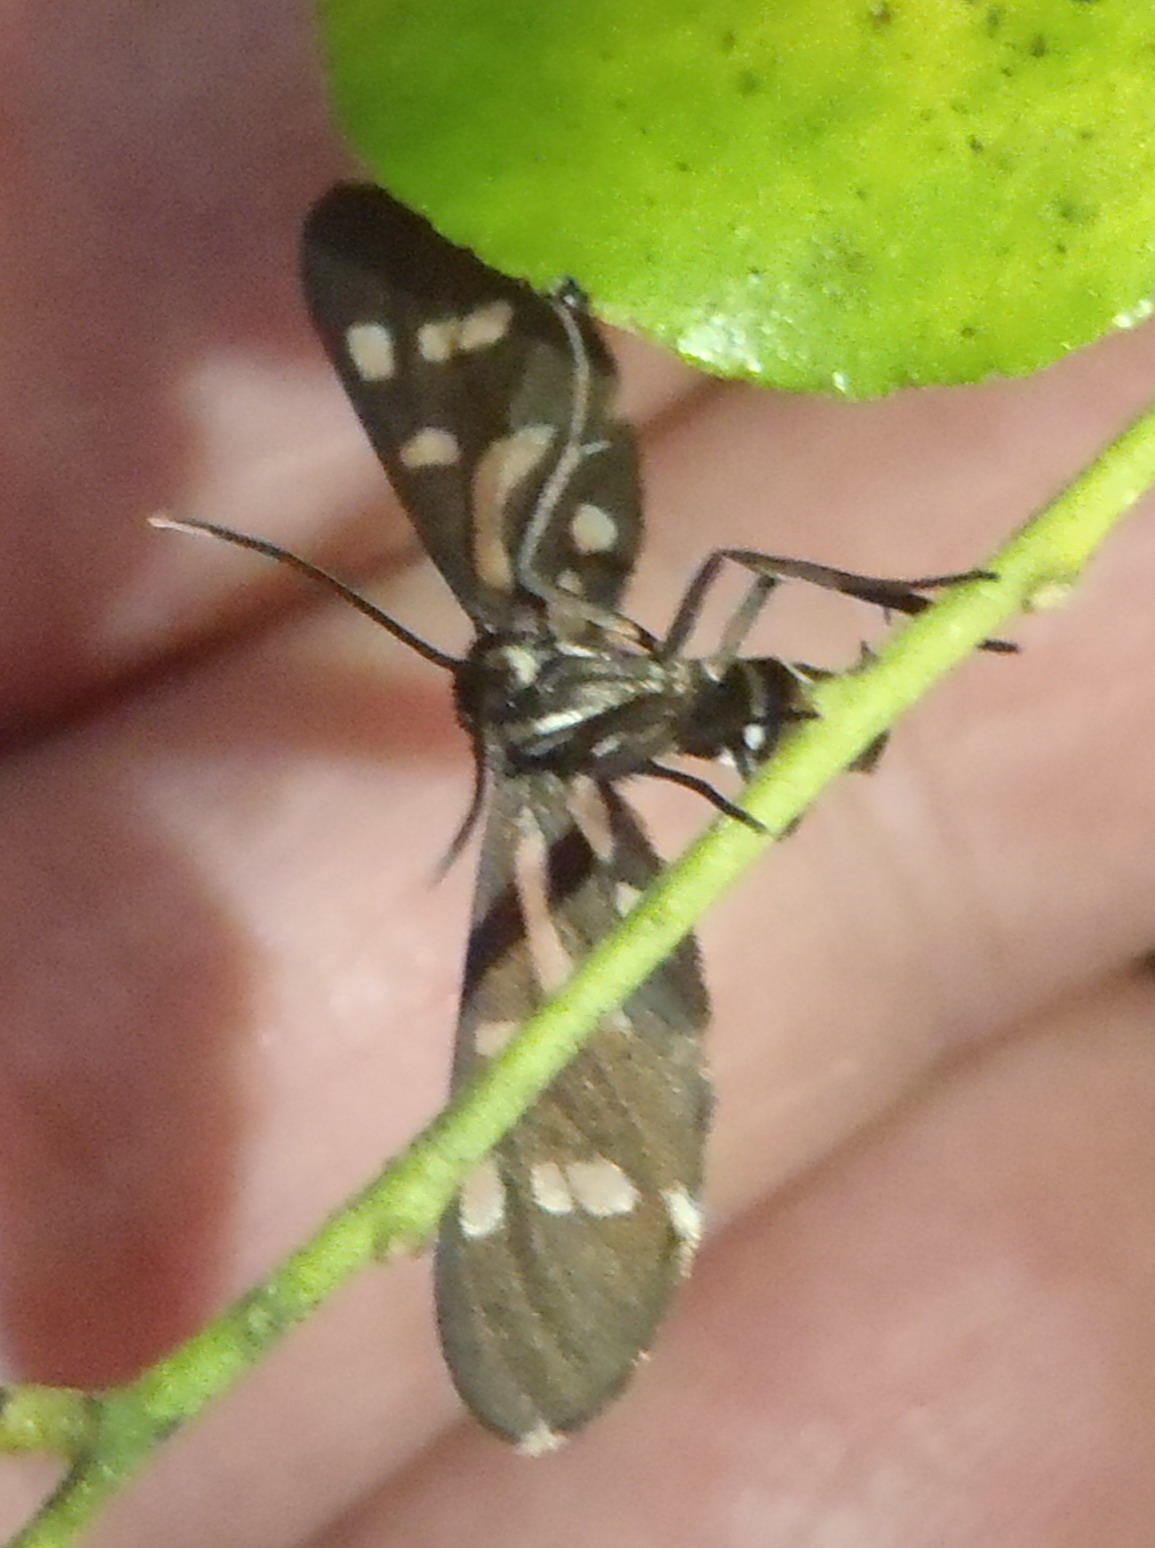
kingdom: Animalia
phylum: Arthropoda
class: Insecta
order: Lepidoptera
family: Erebidae
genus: Ceryx
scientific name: Ceryx toxotes
